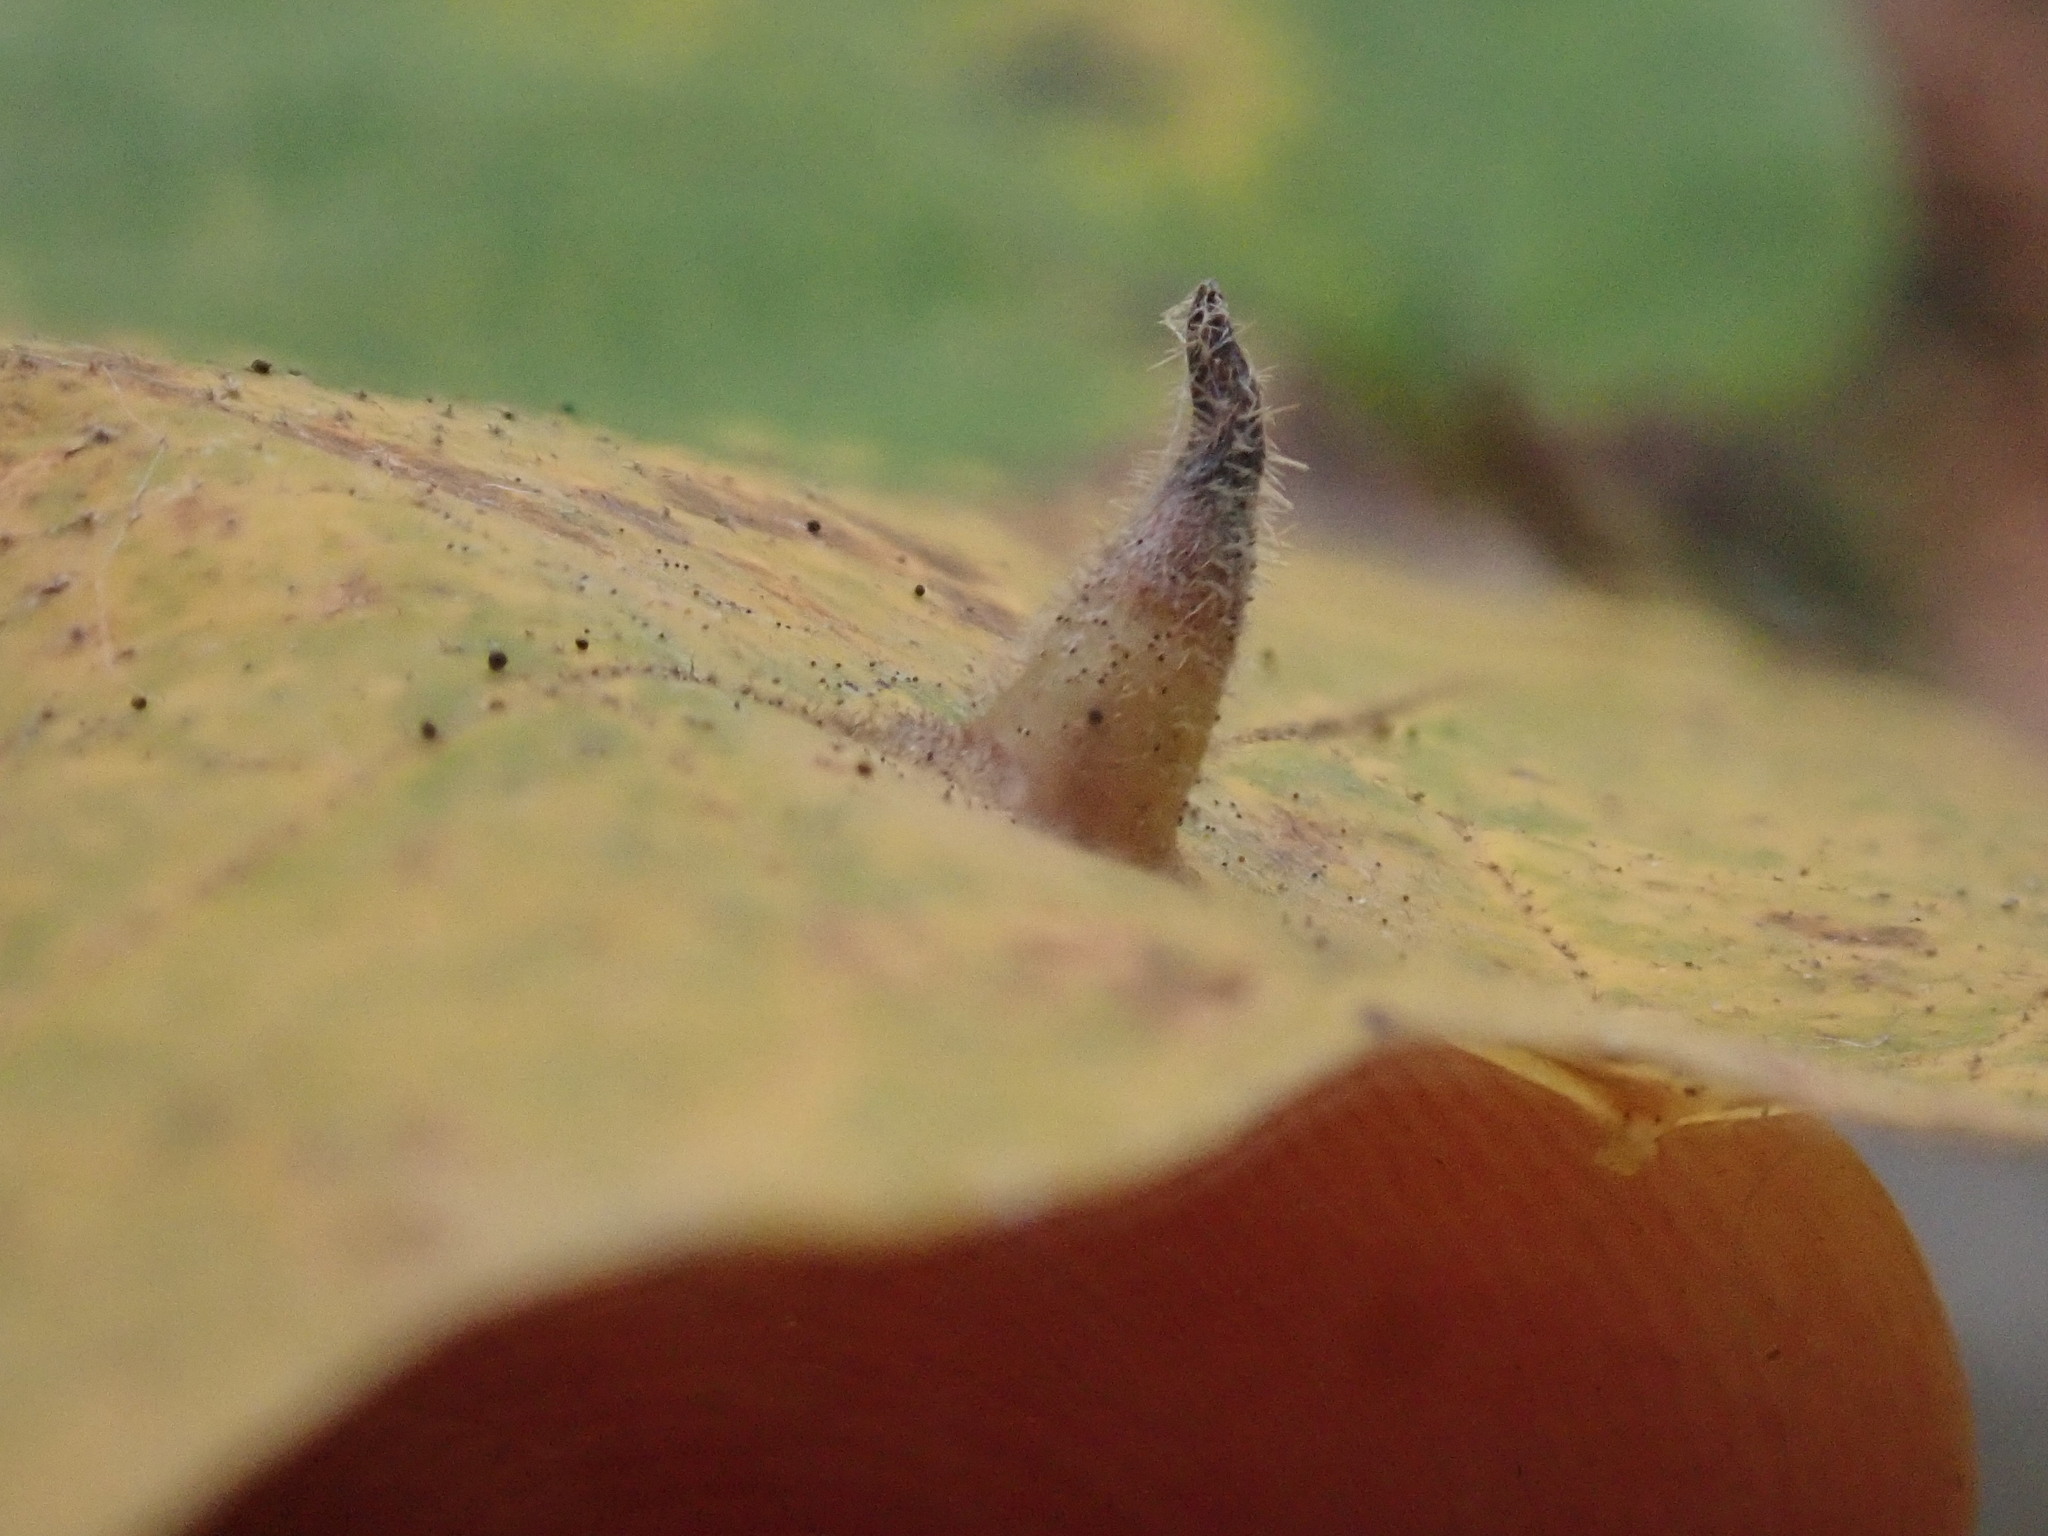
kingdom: Animalia
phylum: Arthropoda
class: Insecta
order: Hemiptera
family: Aphididae
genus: Hormaphis
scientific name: Hormaphis hamamelidis
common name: Witch-hazel cone gall aphid
